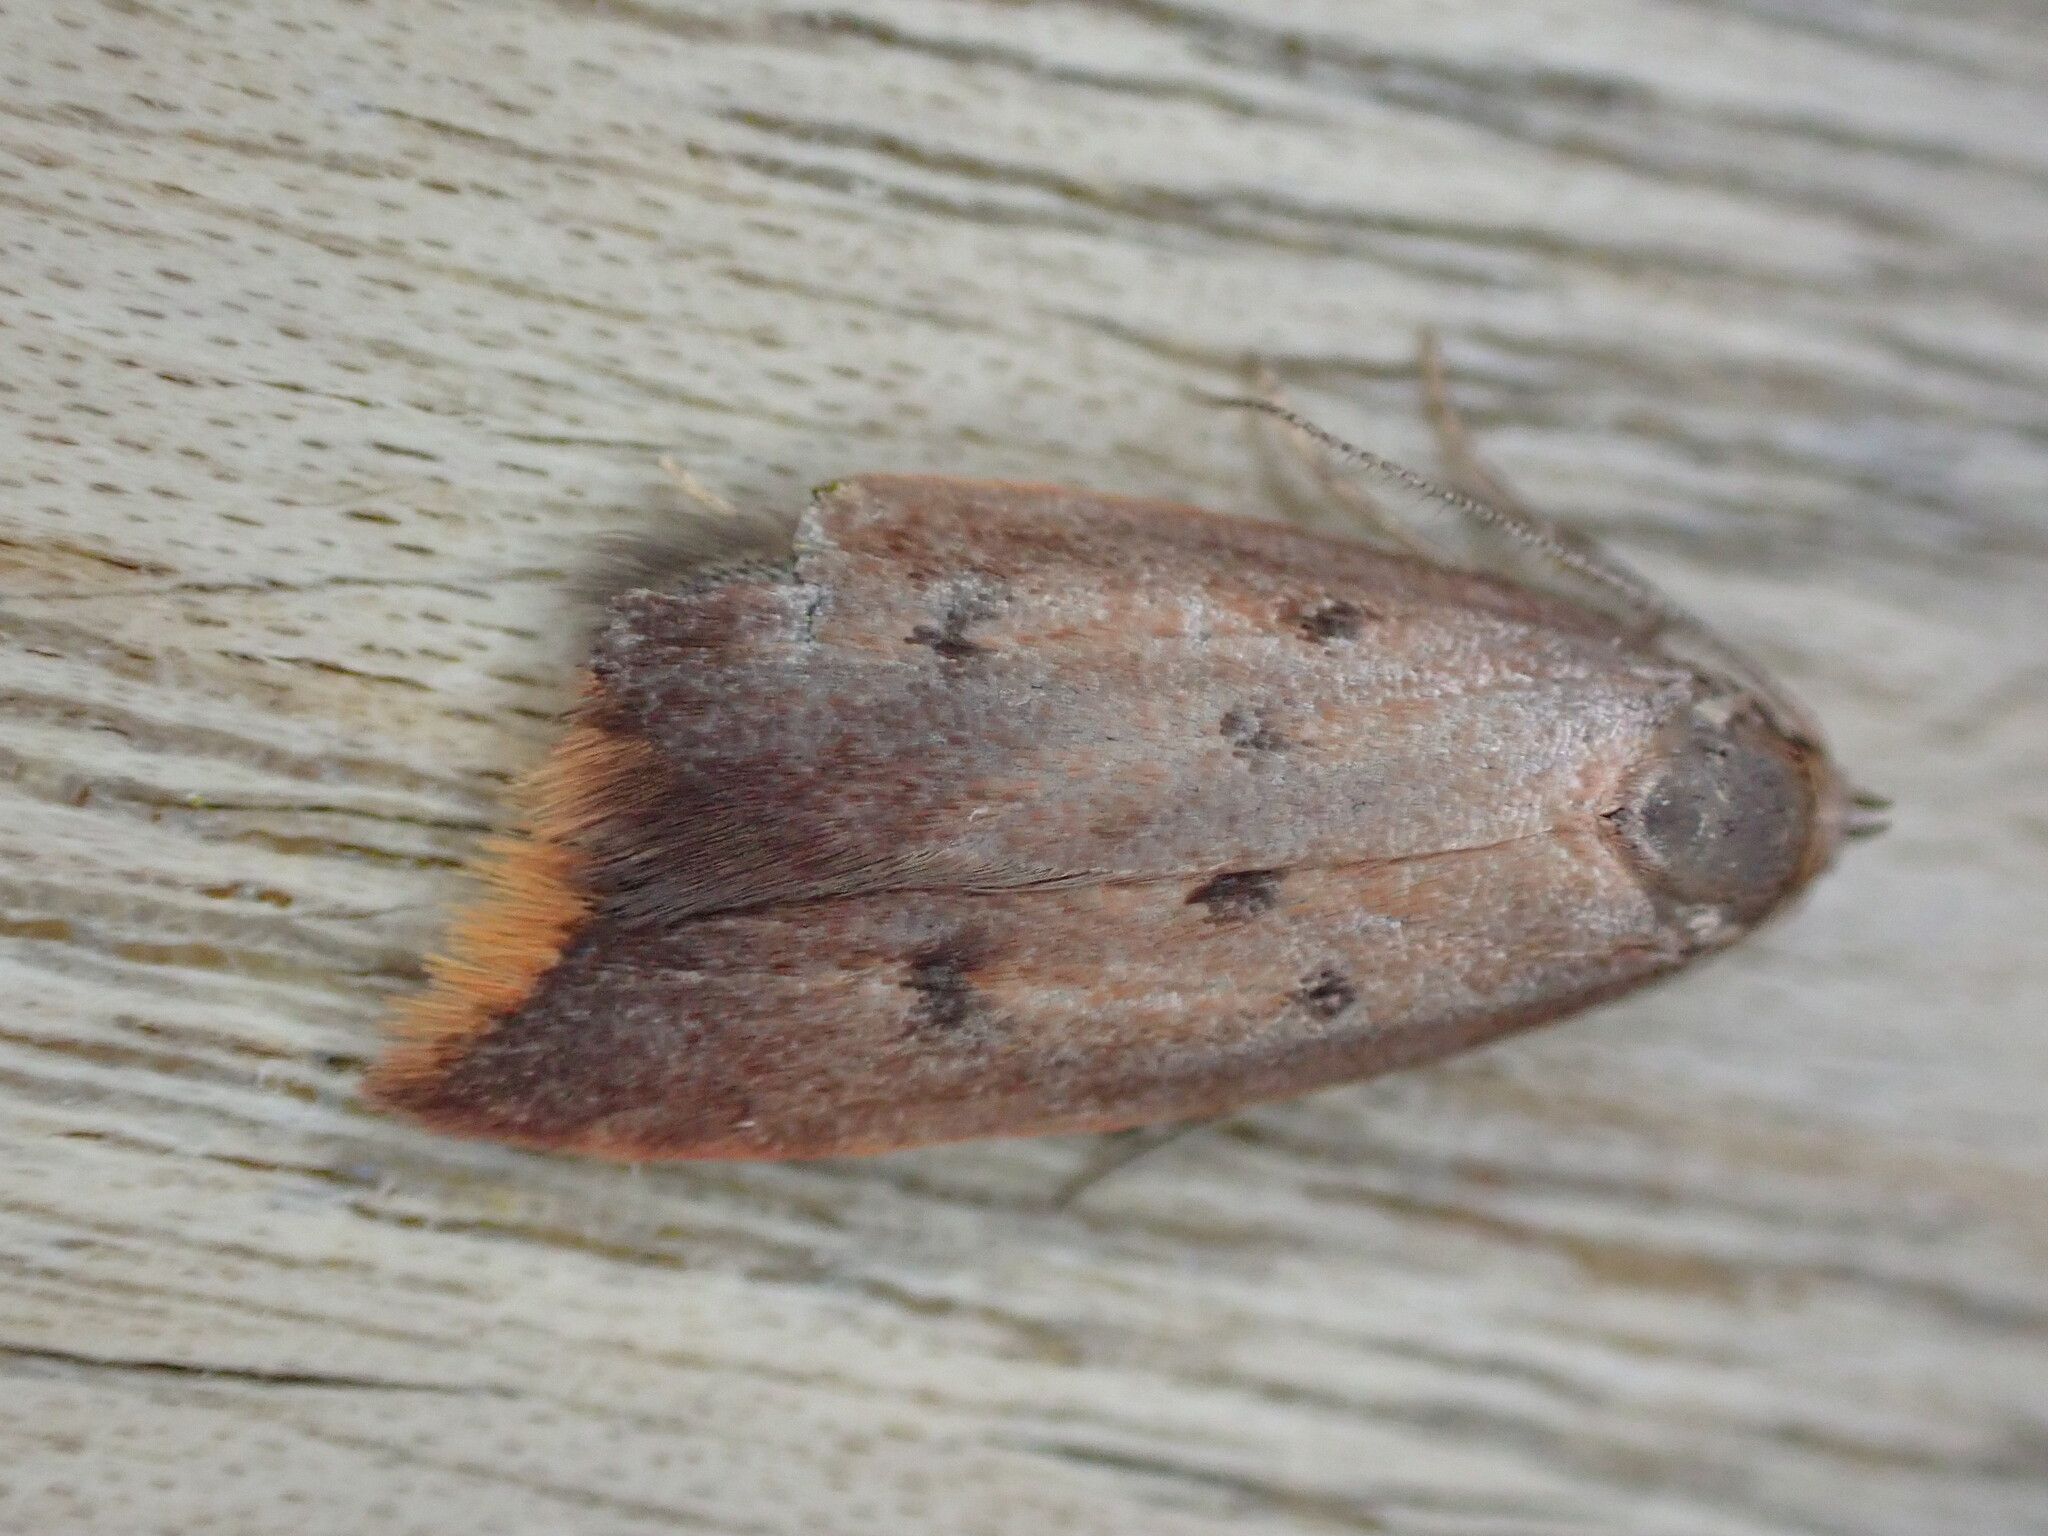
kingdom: Animalia
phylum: Arthropoda
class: Insecta
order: Lepidoptera
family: Oecophoridae
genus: Tachystola
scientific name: Tachystola acroxantha
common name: Ruddy streak
